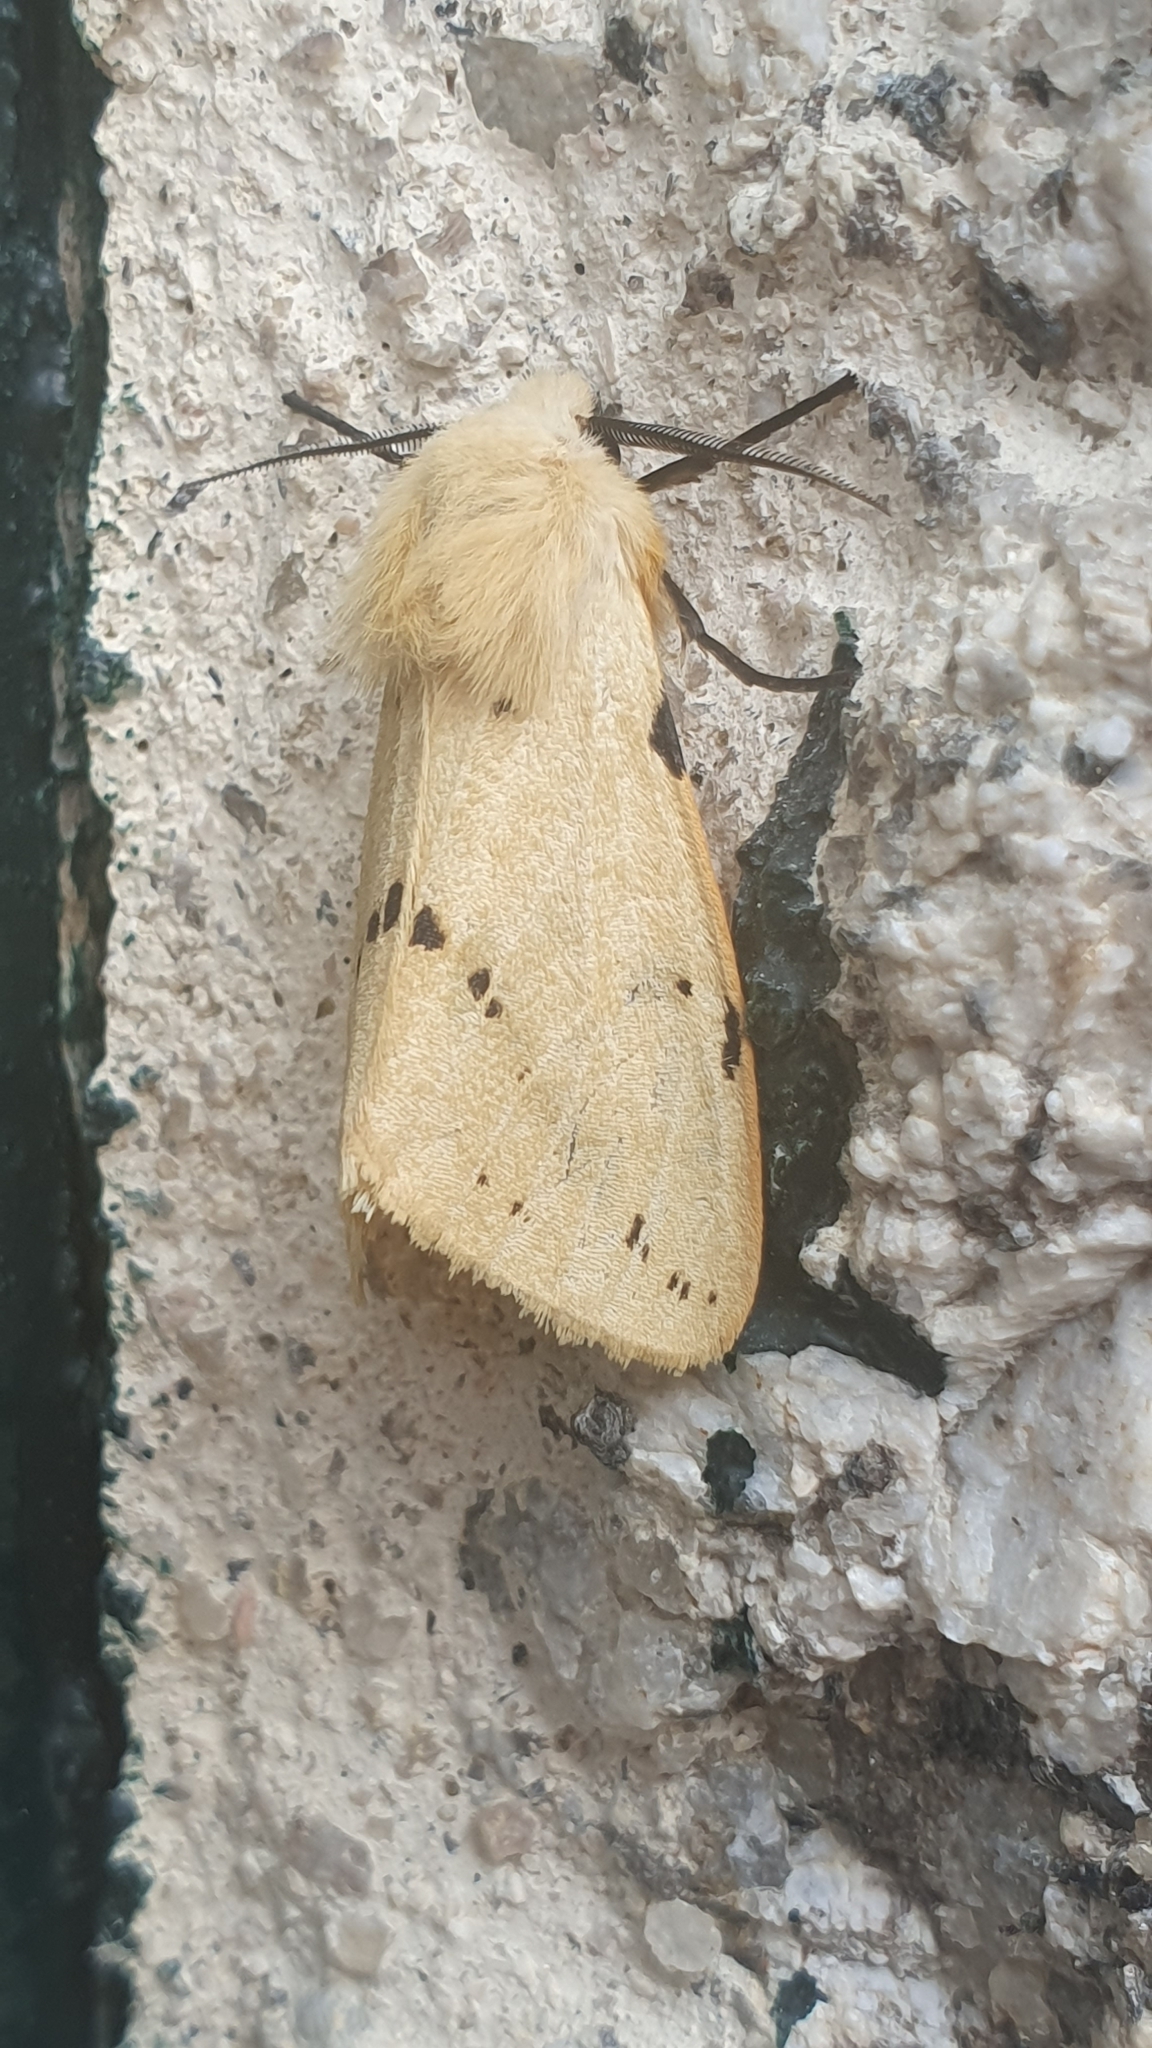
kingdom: Animalia
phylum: Arthropoda
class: Insecta
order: Lepidoptera
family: Erebidae
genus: Spilarctia
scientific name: Spilarctia lutea
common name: Buff ermine
